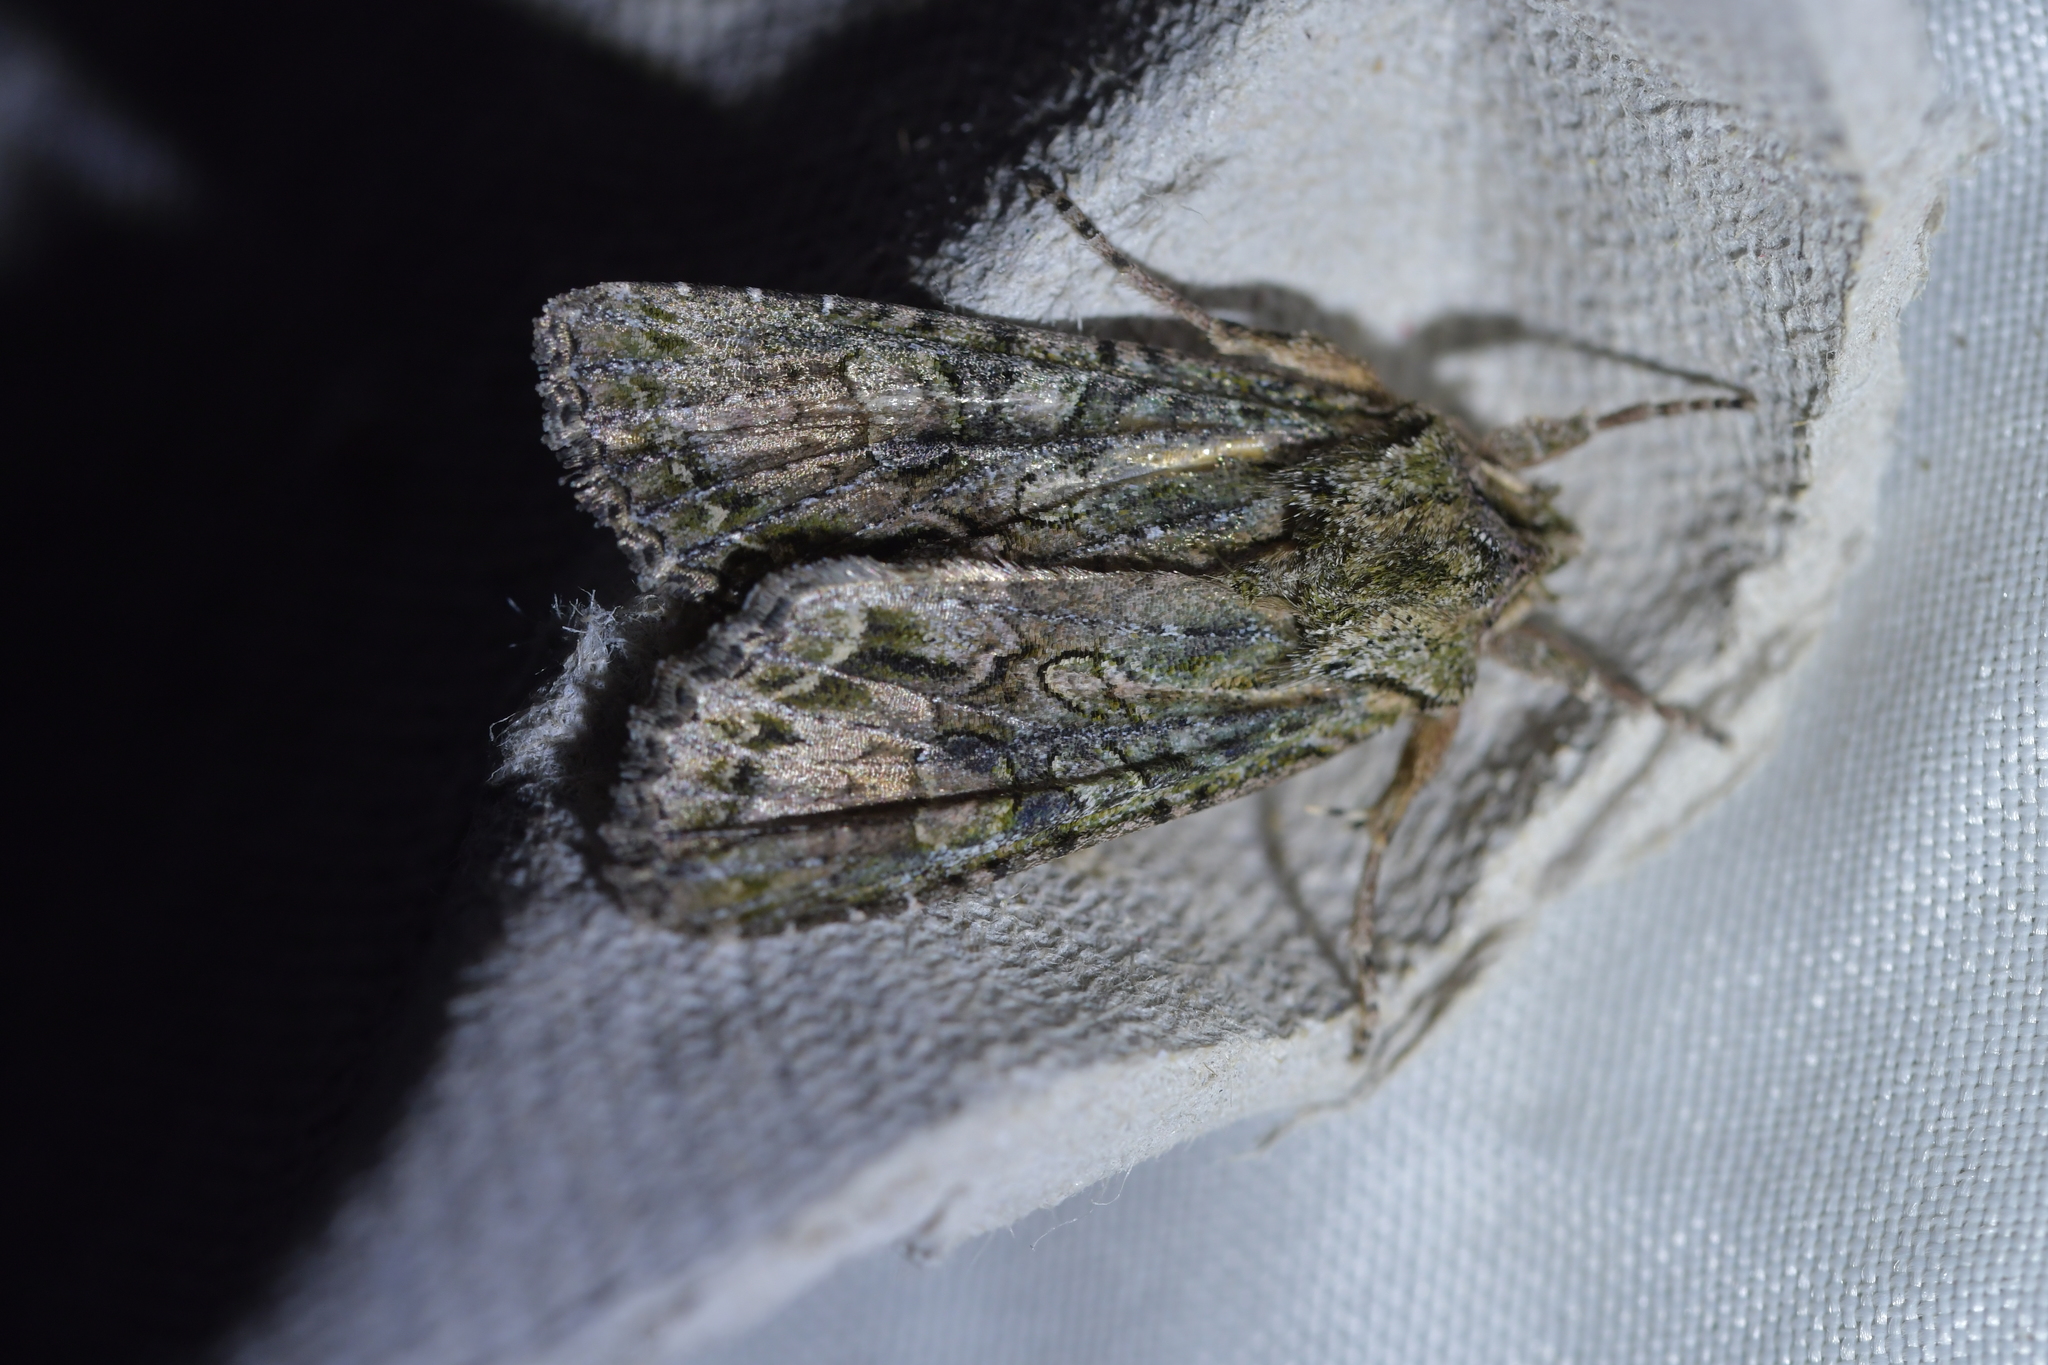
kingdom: Animalia
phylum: Arthropoda
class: Insecta
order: Lepidoptera
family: Noctuidae
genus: Ichneutica
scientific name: Ichneutica mutans
